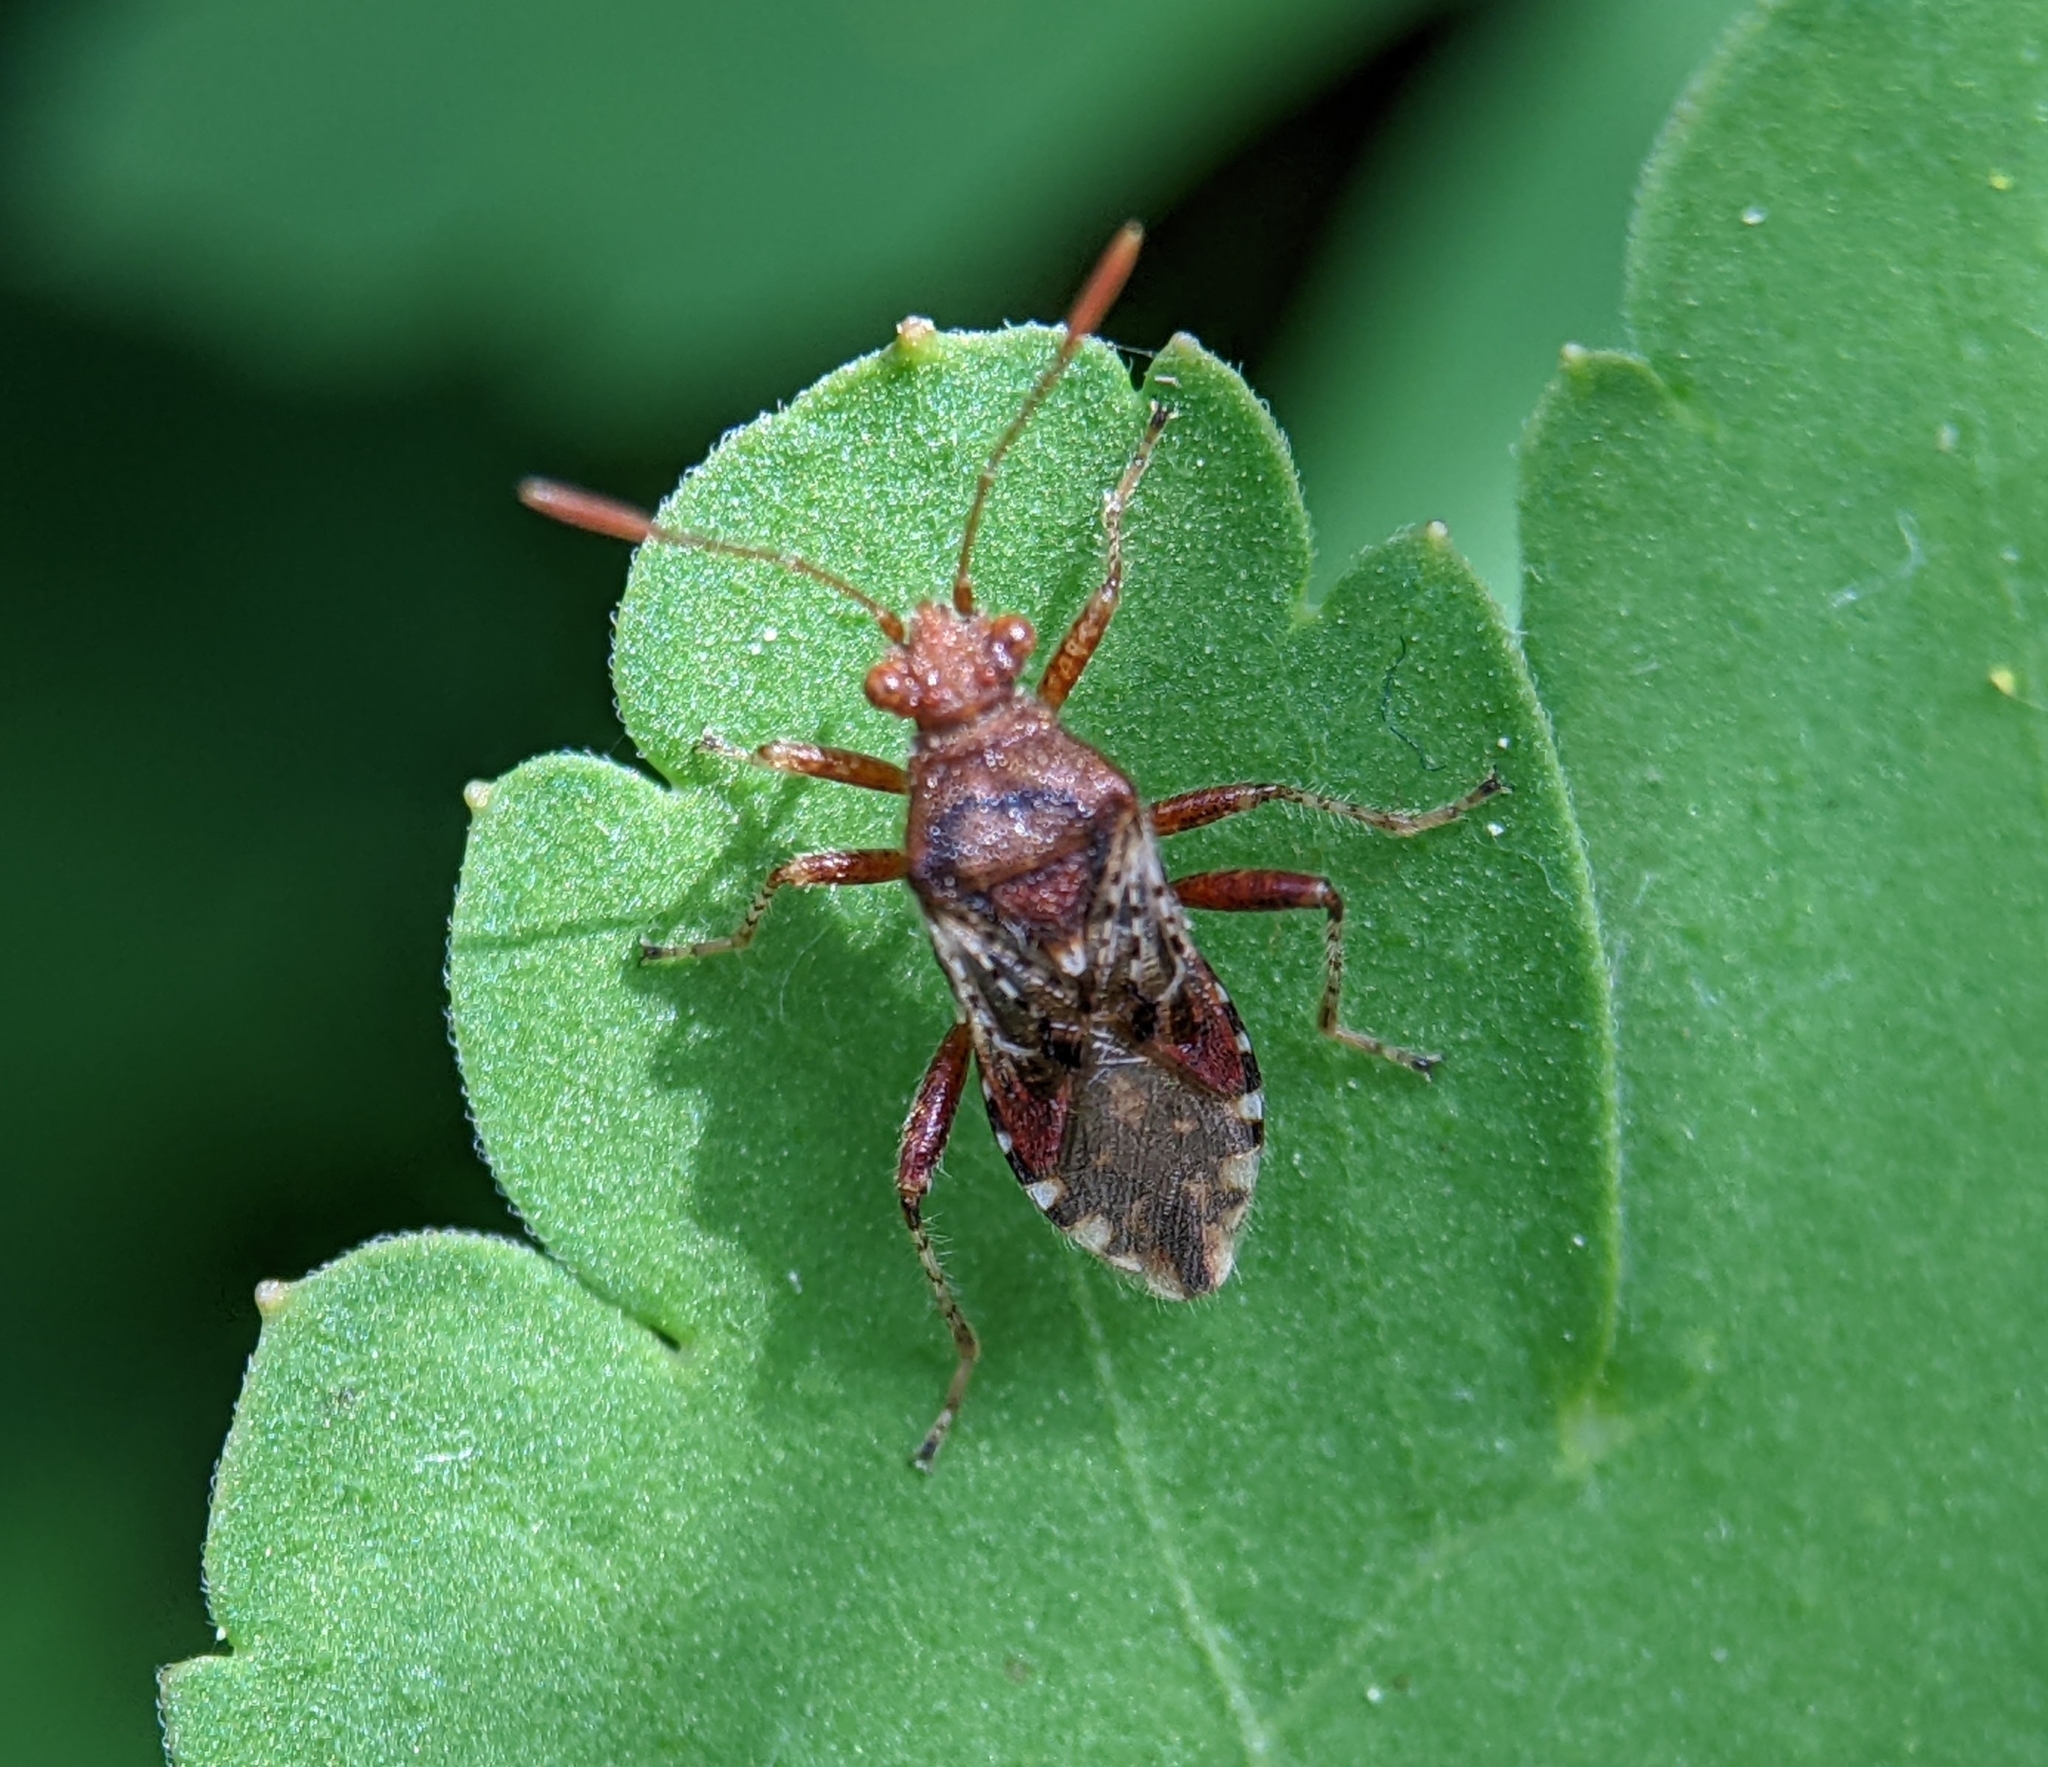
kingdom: Animalia
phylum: Arthropoda
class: Insecta
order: Hemiptera
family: Rhopalidae
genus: Rhopalus
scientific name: Rhopalus subrufus
